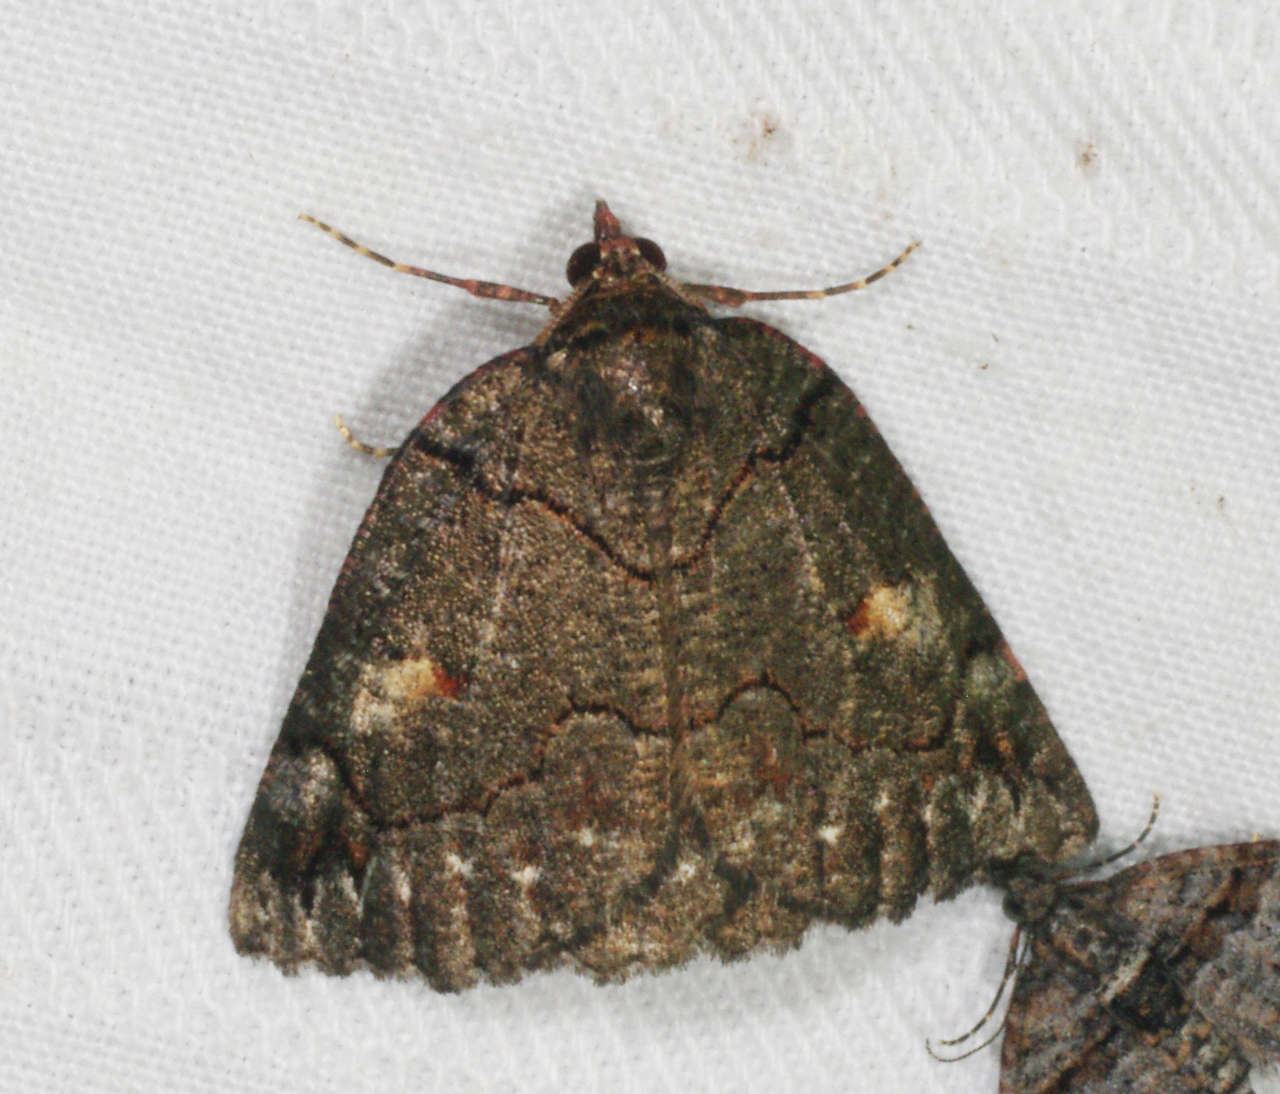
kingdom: Animalia
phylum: Arthropoda
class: Insecta
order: Lepidoptera
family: Geometridae
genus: Austroterpna
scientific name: Austroterpna
